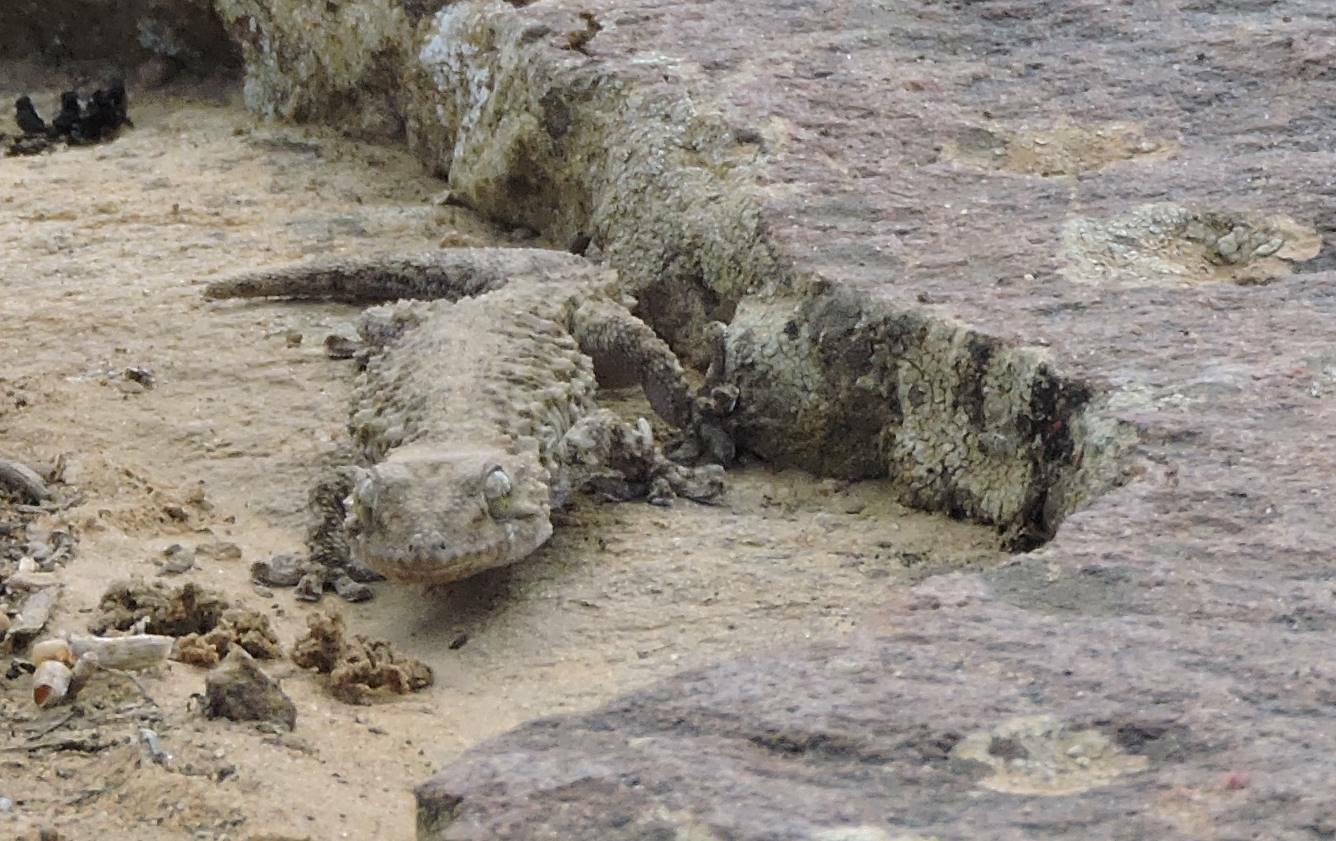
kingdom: Animalia
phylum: Chordata
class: Squamata
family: Phyllodactylidae
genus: Tarentola
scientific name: Tarentola mauritanica
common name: Moorish gecko
